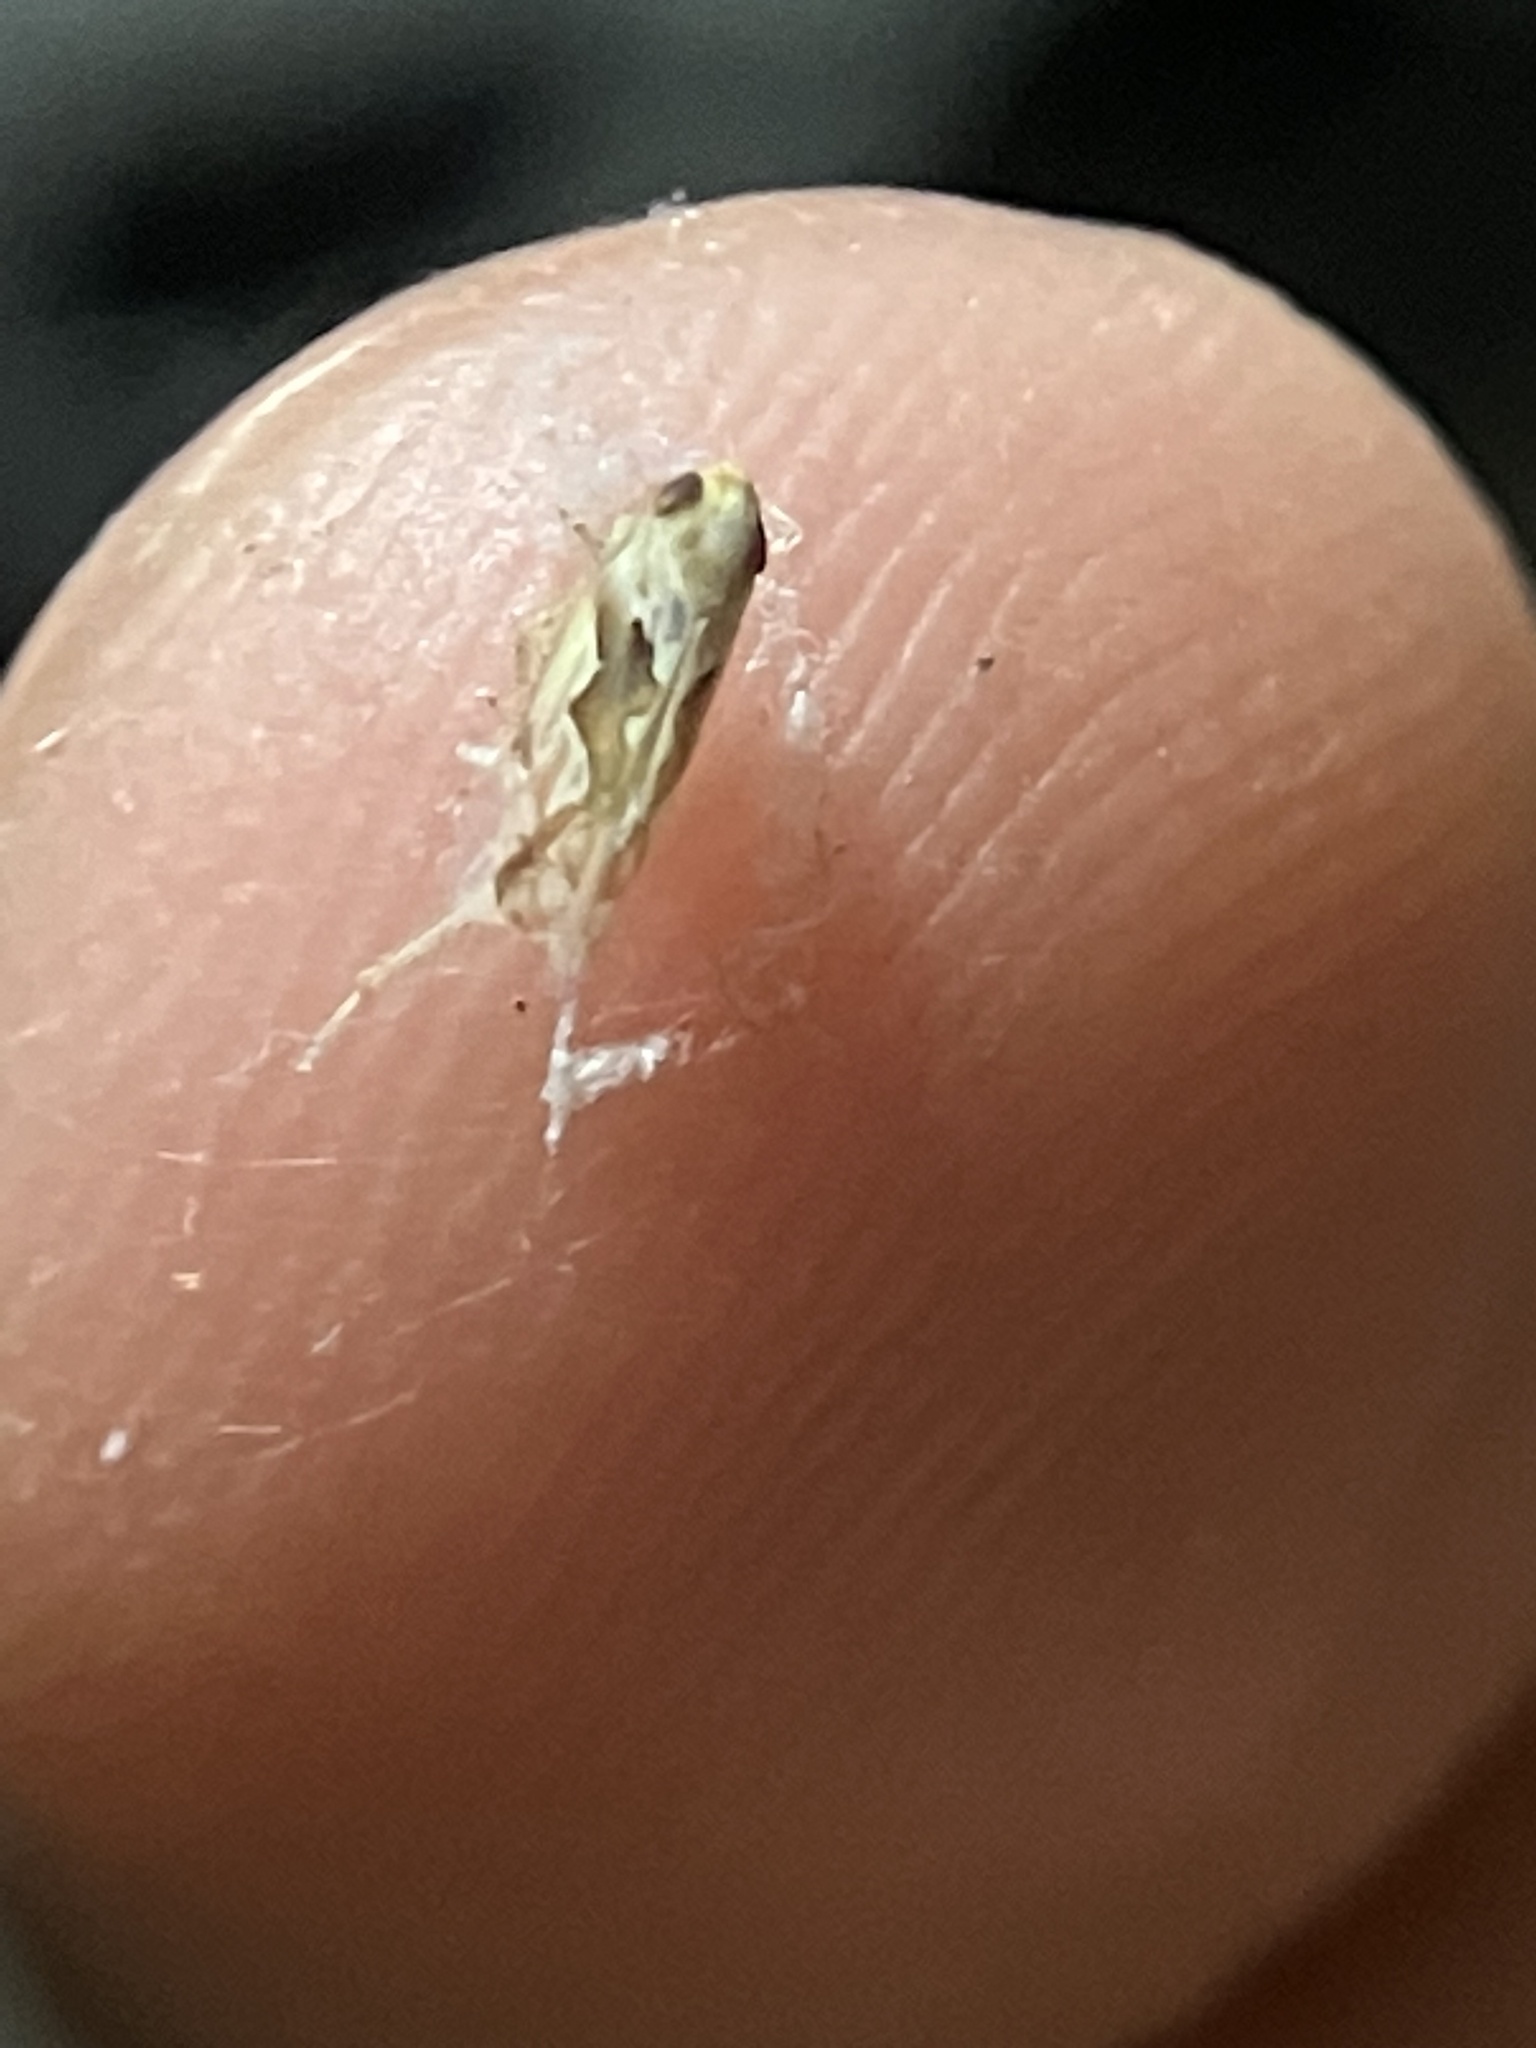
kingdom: Animalia
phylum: Arthropoda
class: Insecta
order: Hemiptera
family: Cicadellidae
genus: Maiestas
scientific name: Maiestas dorsalis
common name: Zig-zag leafhopper
